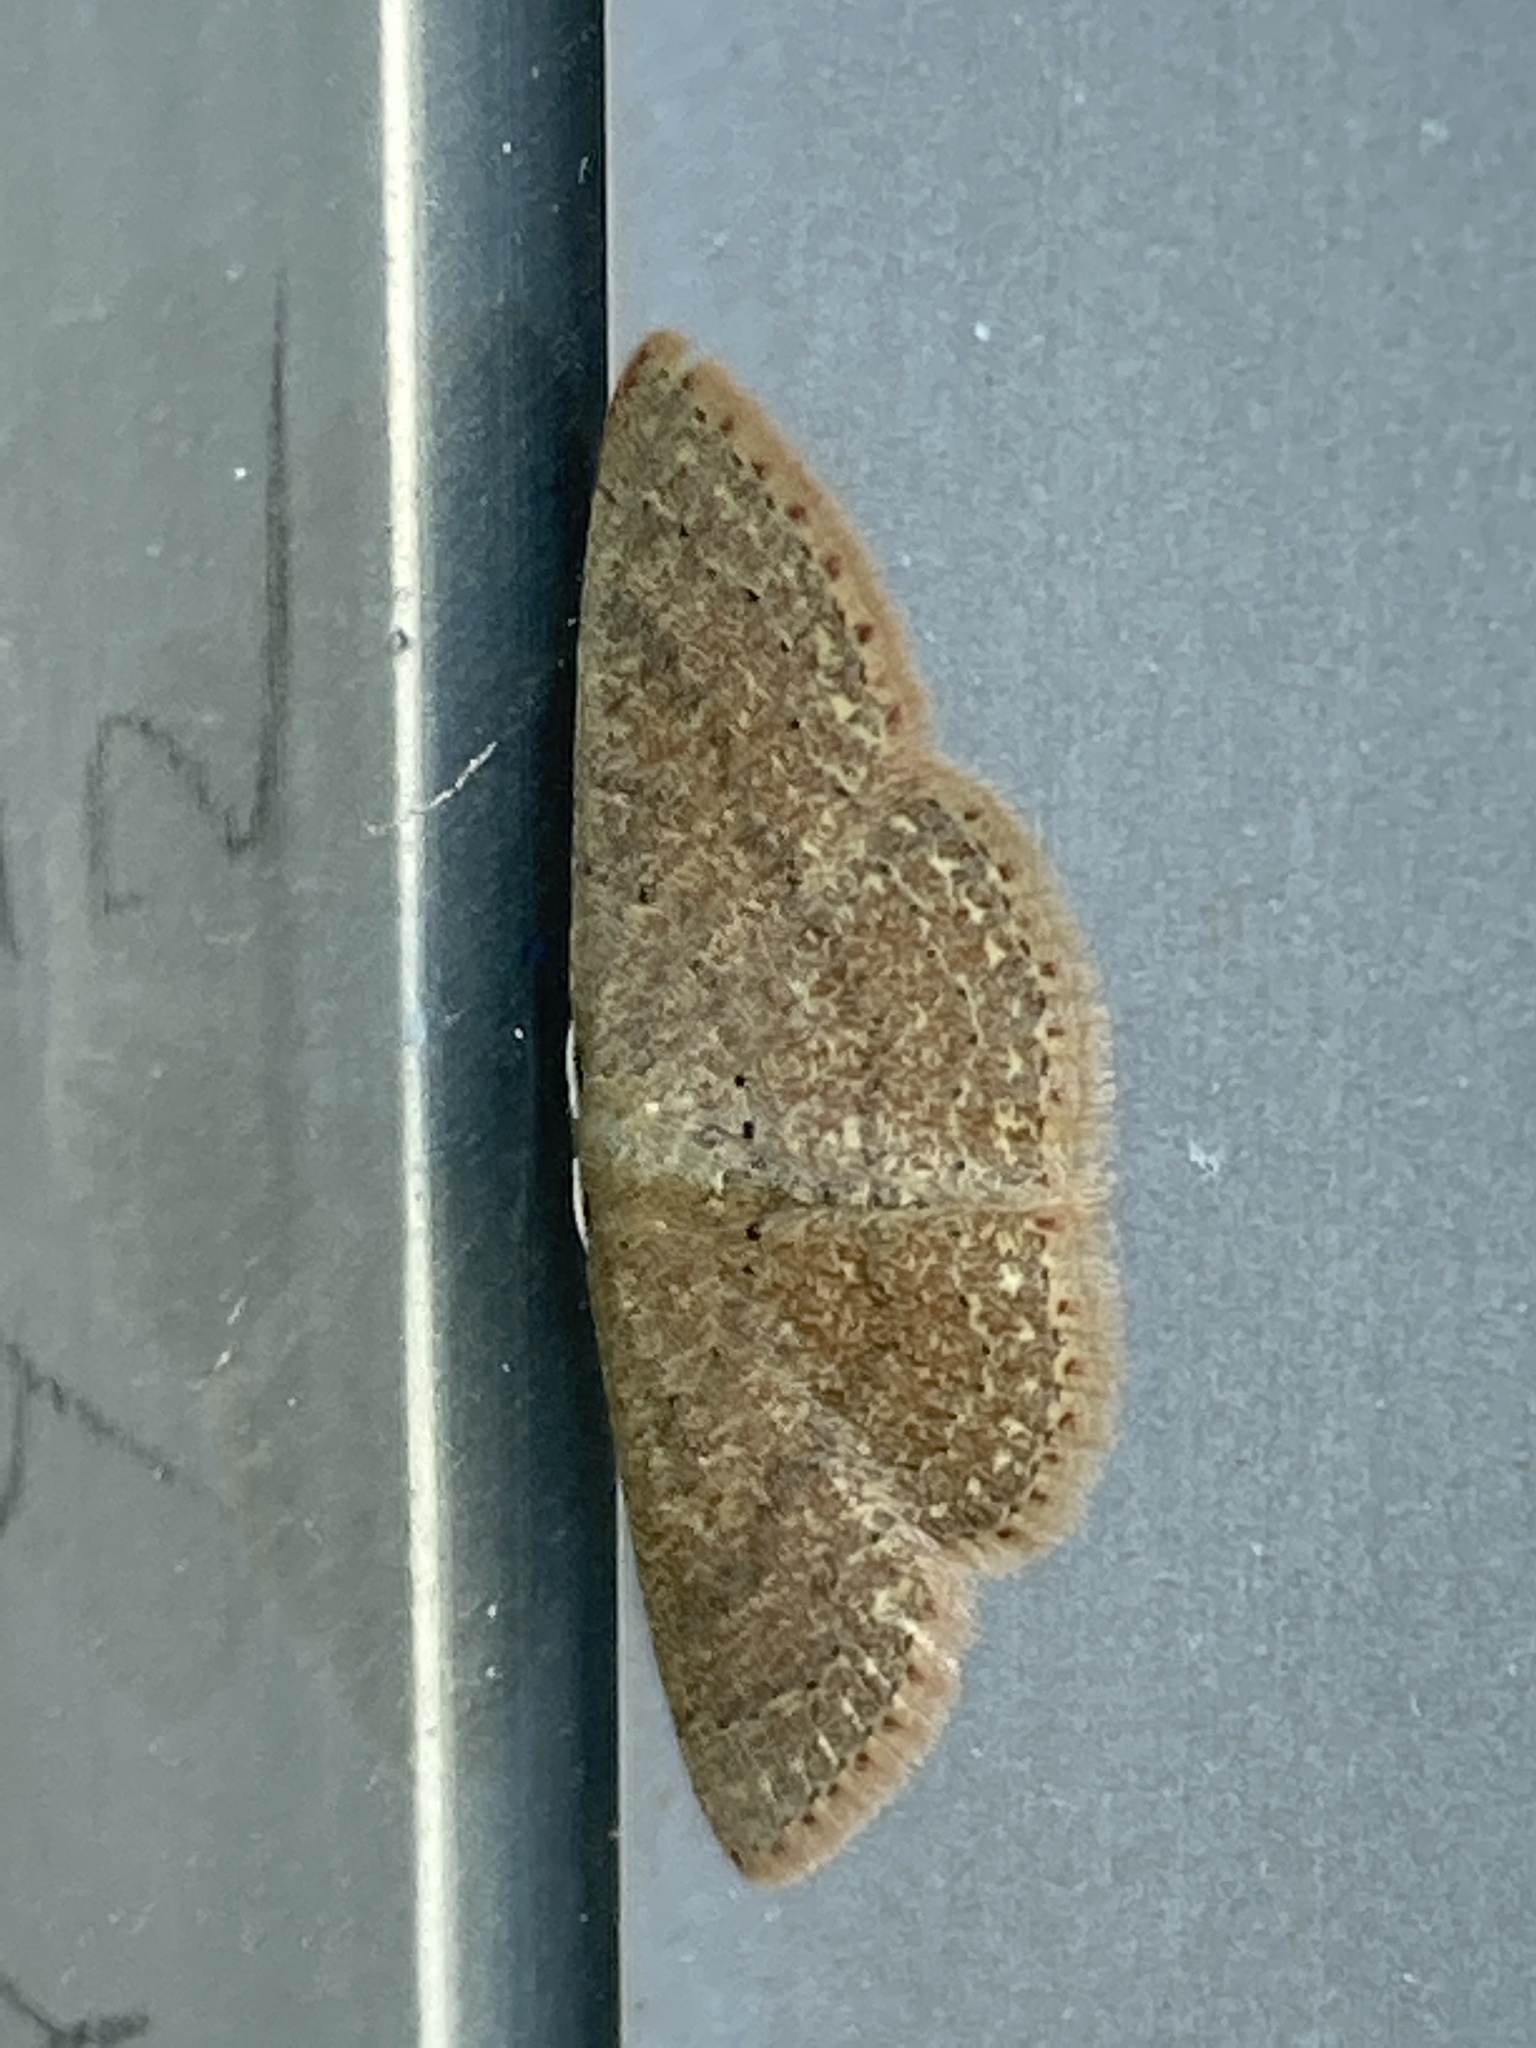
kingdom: Animalia
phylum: Arthropoda
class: Insecta
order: Lepidoptera
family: Geometridae
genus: Pleuroprucha
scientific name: Pleuroprucha insulsaria
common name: Common tan wave
